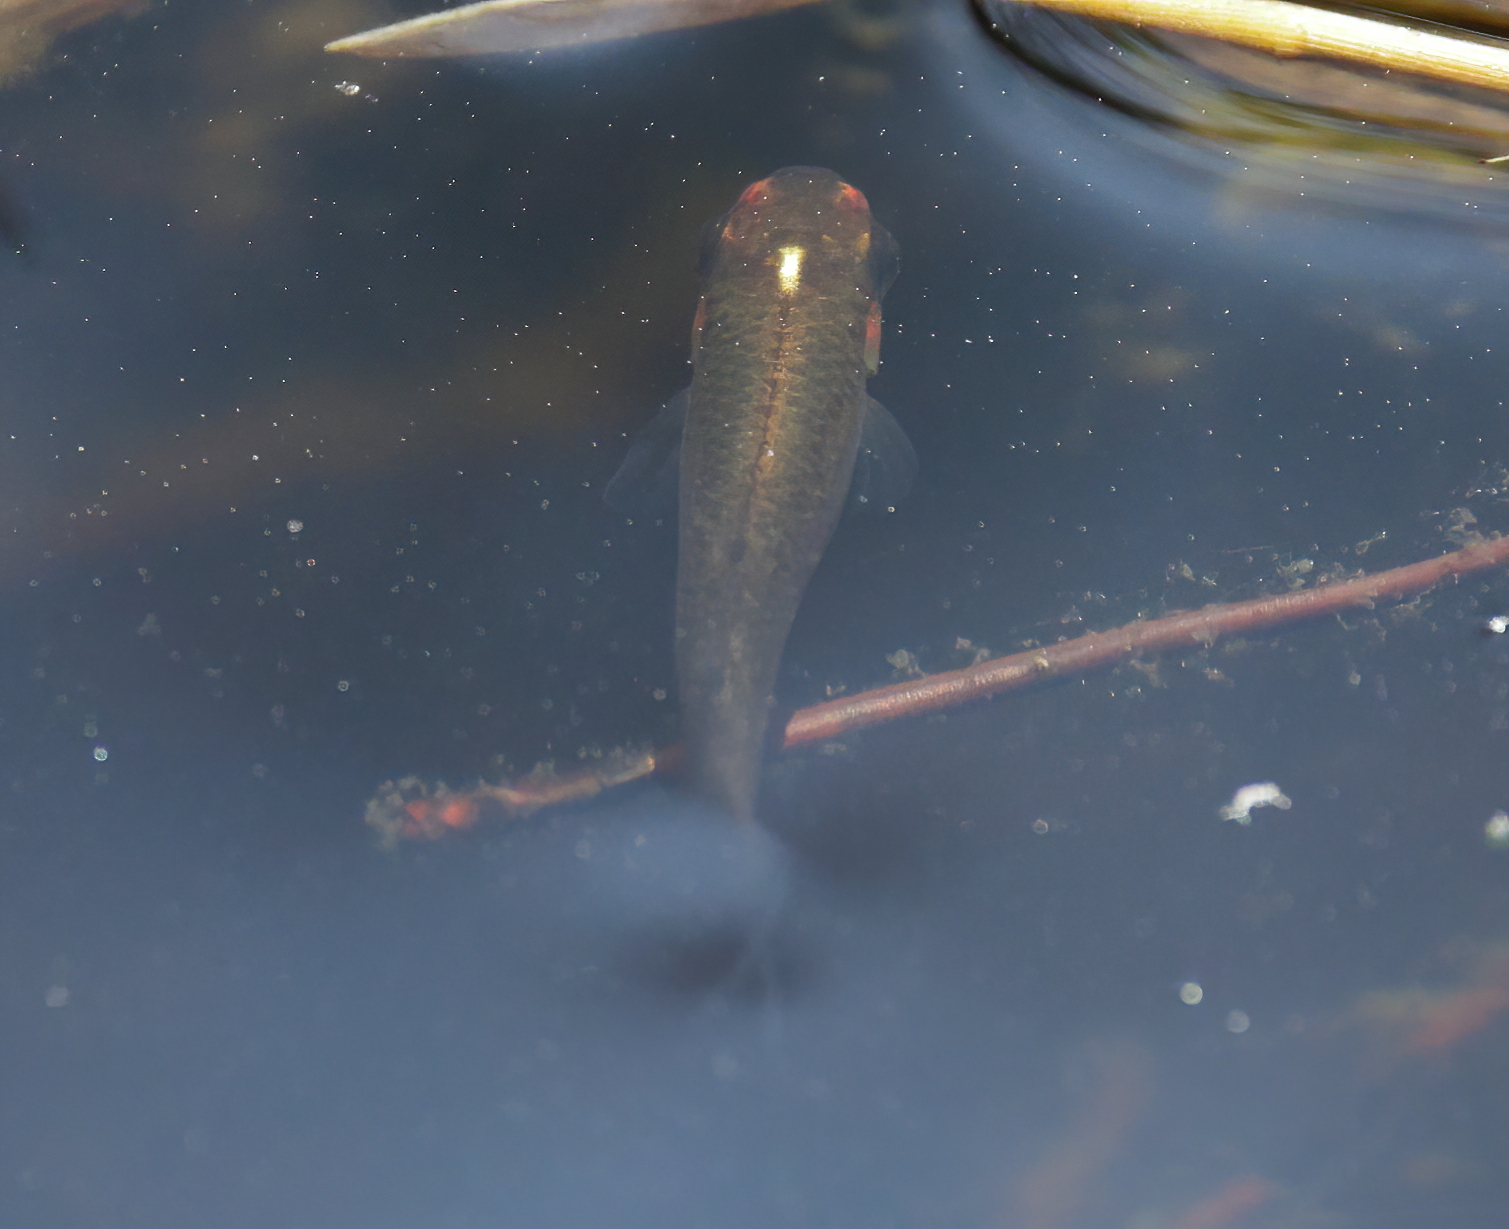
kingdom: Animalia
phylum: Chordata
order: Cyprinodontiformes
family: Fundulidae
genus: Fundulus
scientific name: Fundulus nottii
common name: Bayou topminnow
